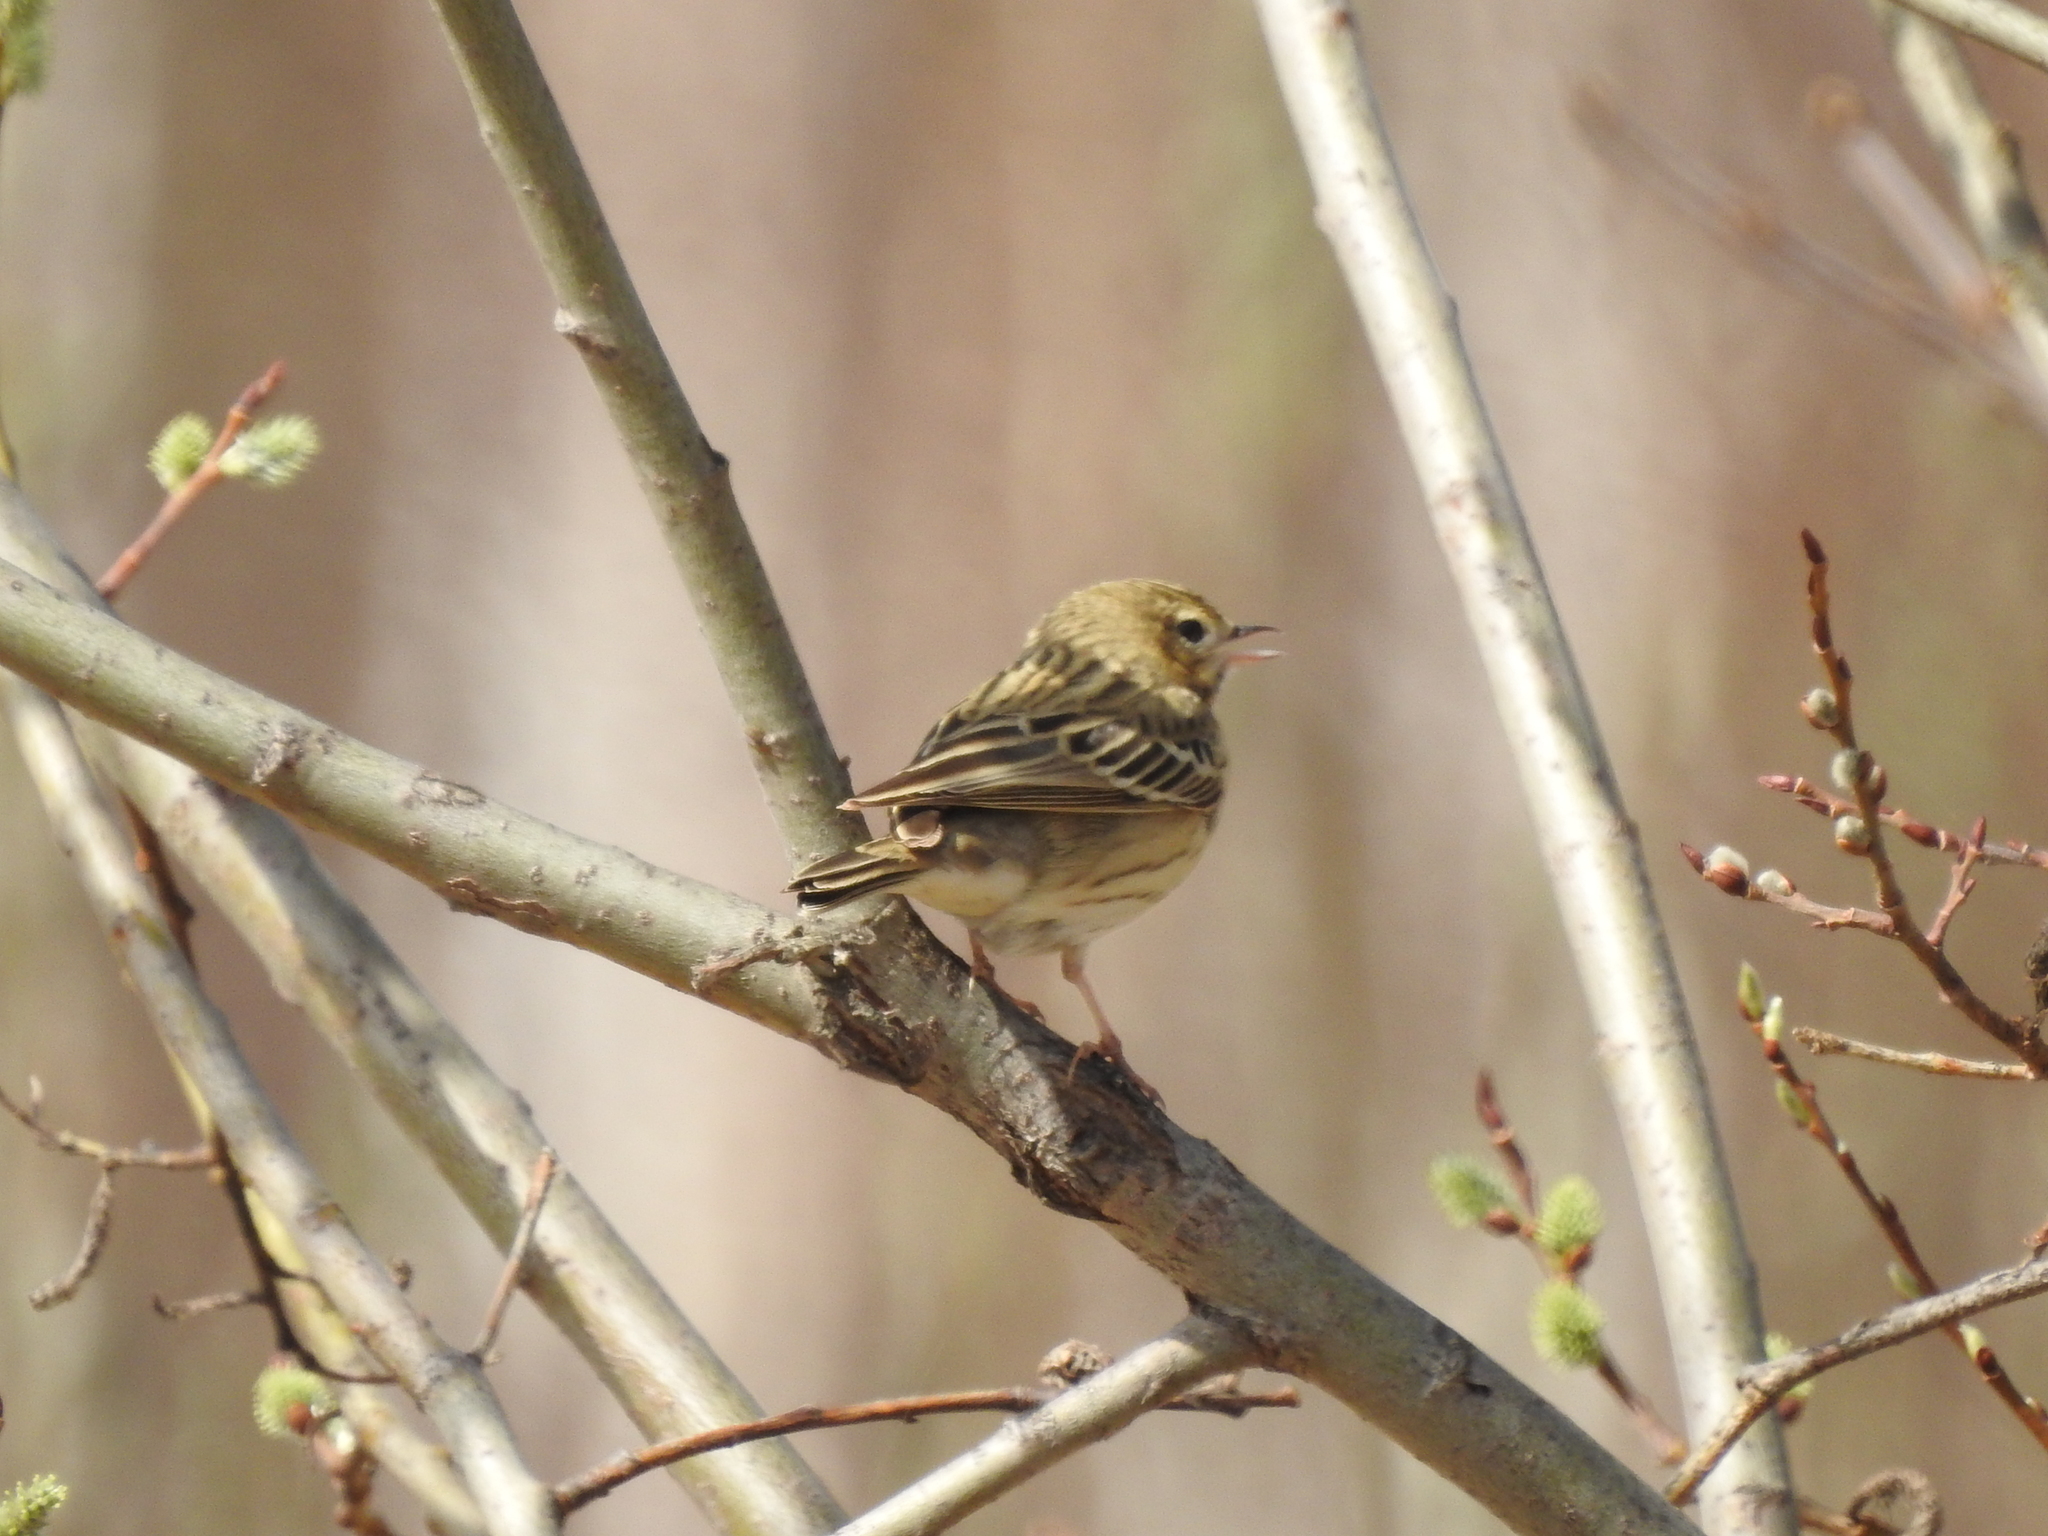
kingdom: Animalia
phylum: Chordata
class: Aves
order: Passeriformes
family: Motacillidae
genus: Anthus
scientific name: Anthus trivialis
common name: Tree pipit
